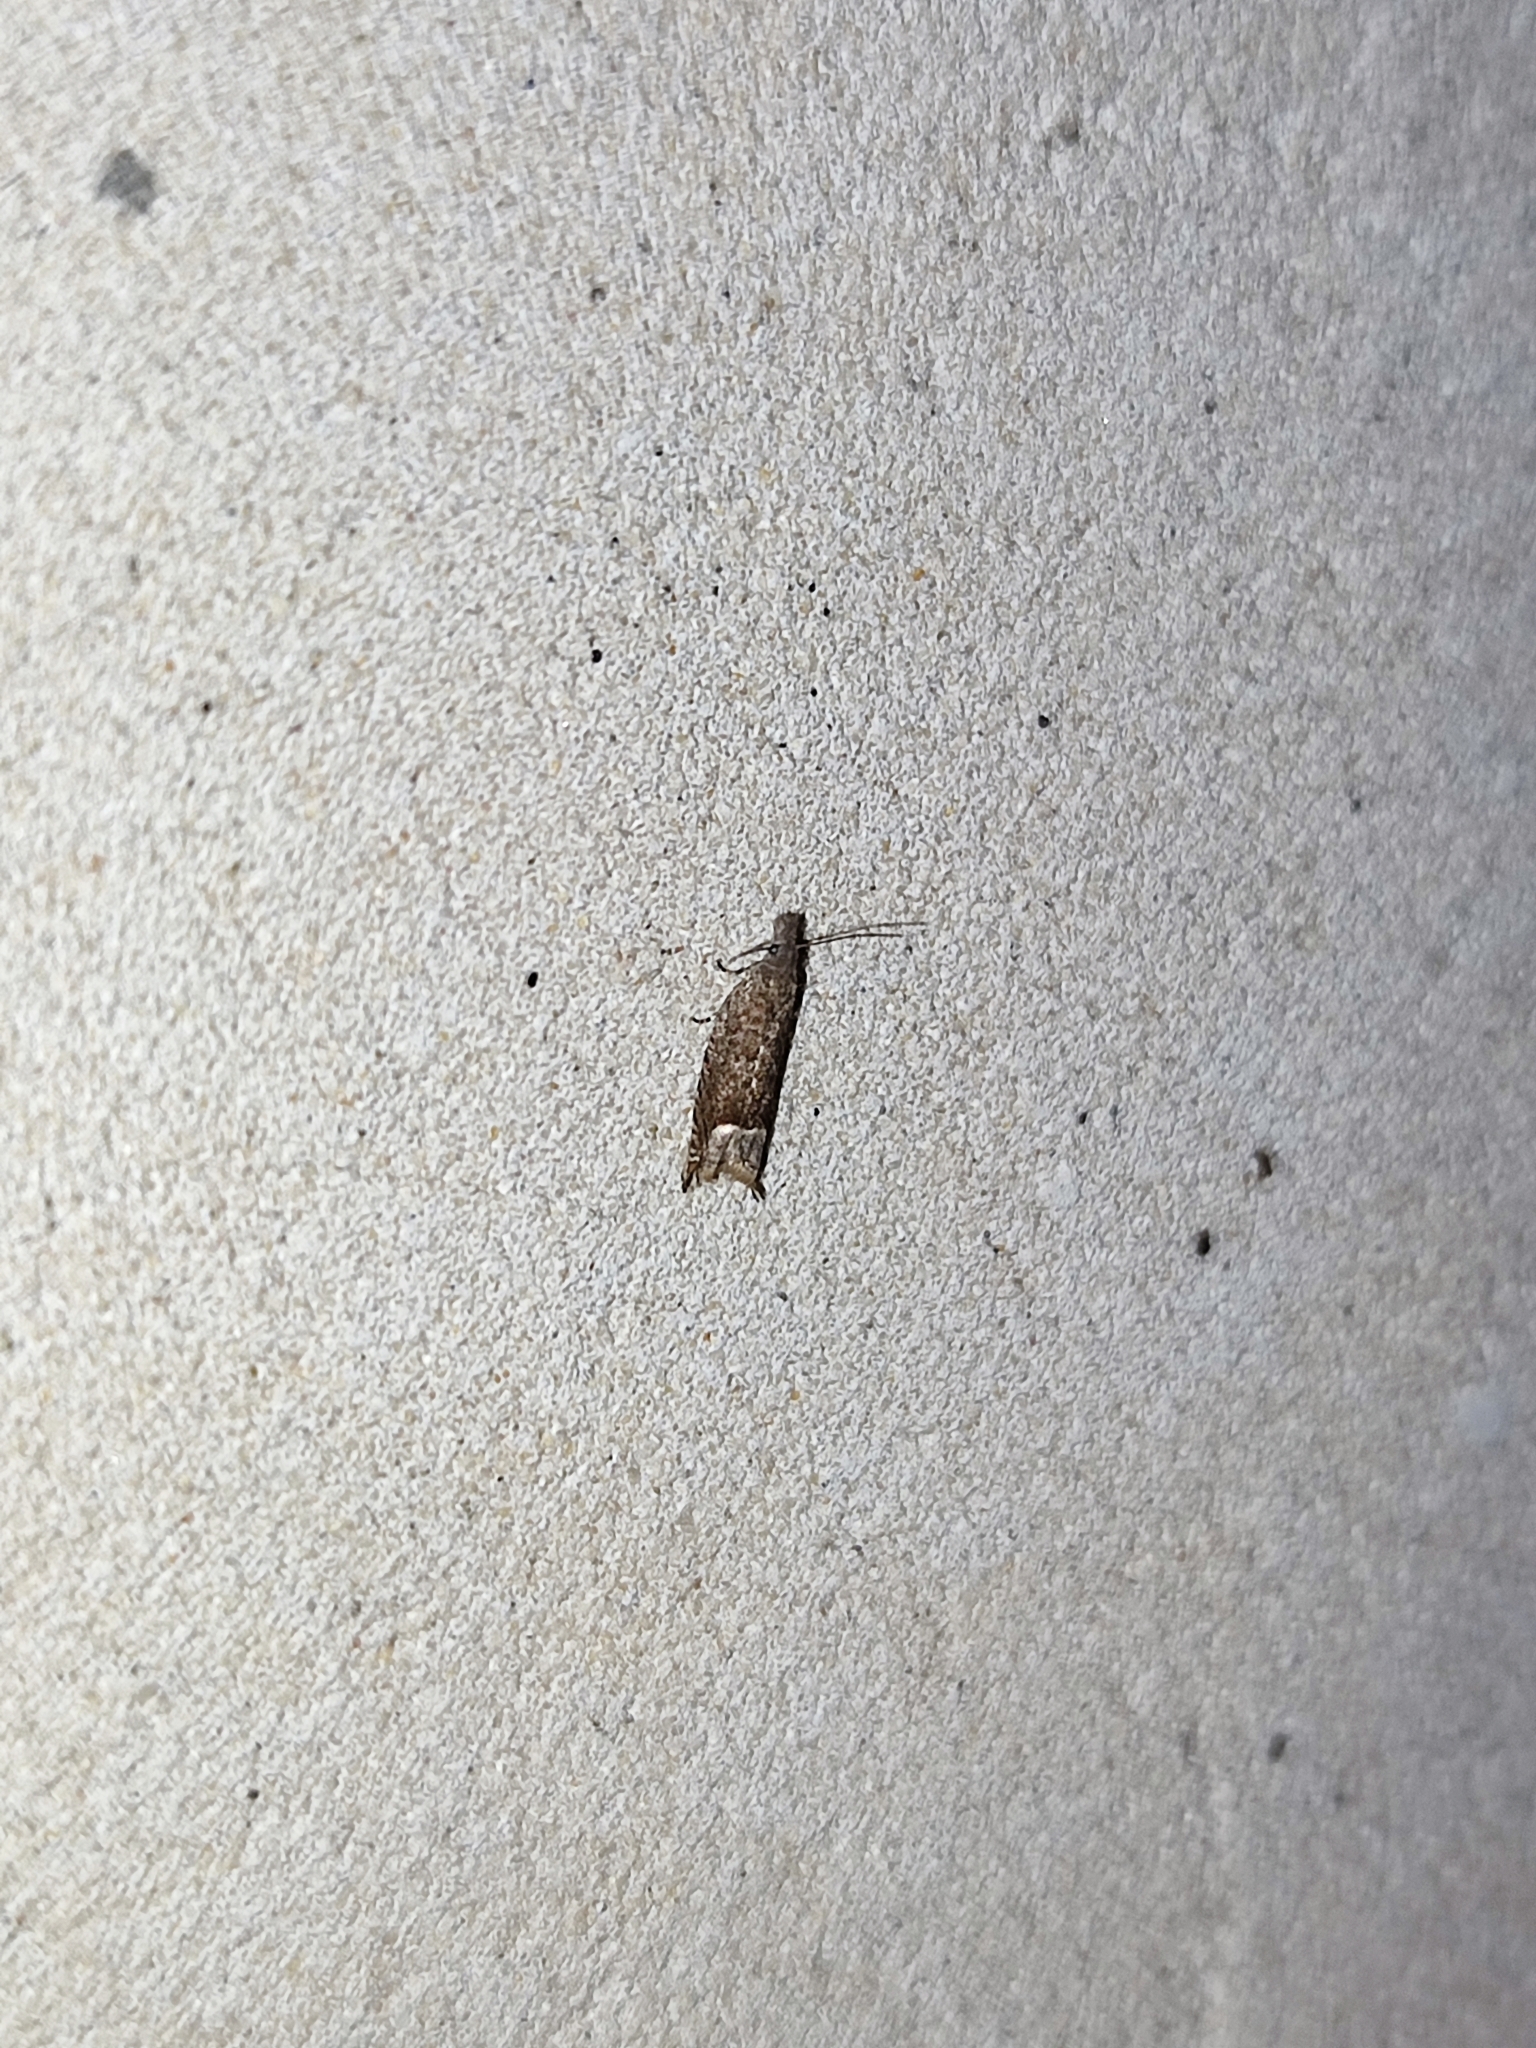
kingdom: Animalia
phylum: Arthropoda
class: Insecta
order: Lepidoptera
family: Tortricidae
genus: Ancylis
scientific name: Ancylis tineana
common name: Rannoch roller
